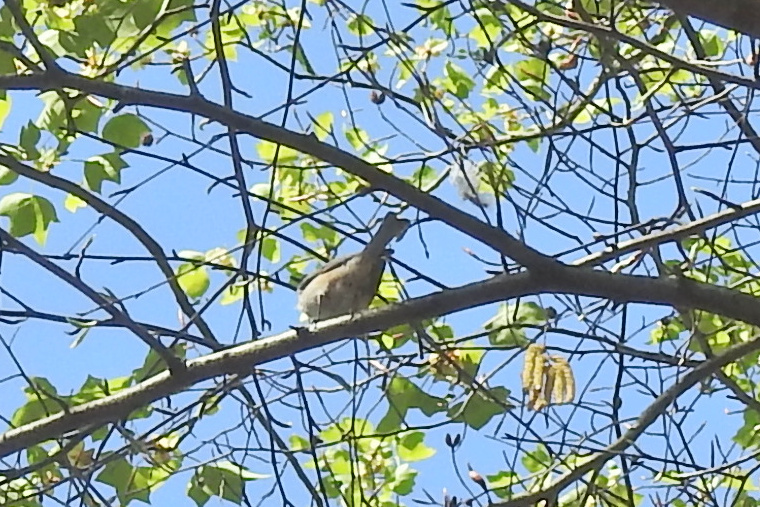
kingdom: Animalia
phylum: Chordata
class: Aves
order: Passeriformes
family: Paridae
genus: Baeolophus
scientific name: Baeolophus bicolor
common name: Tufted titmouse
